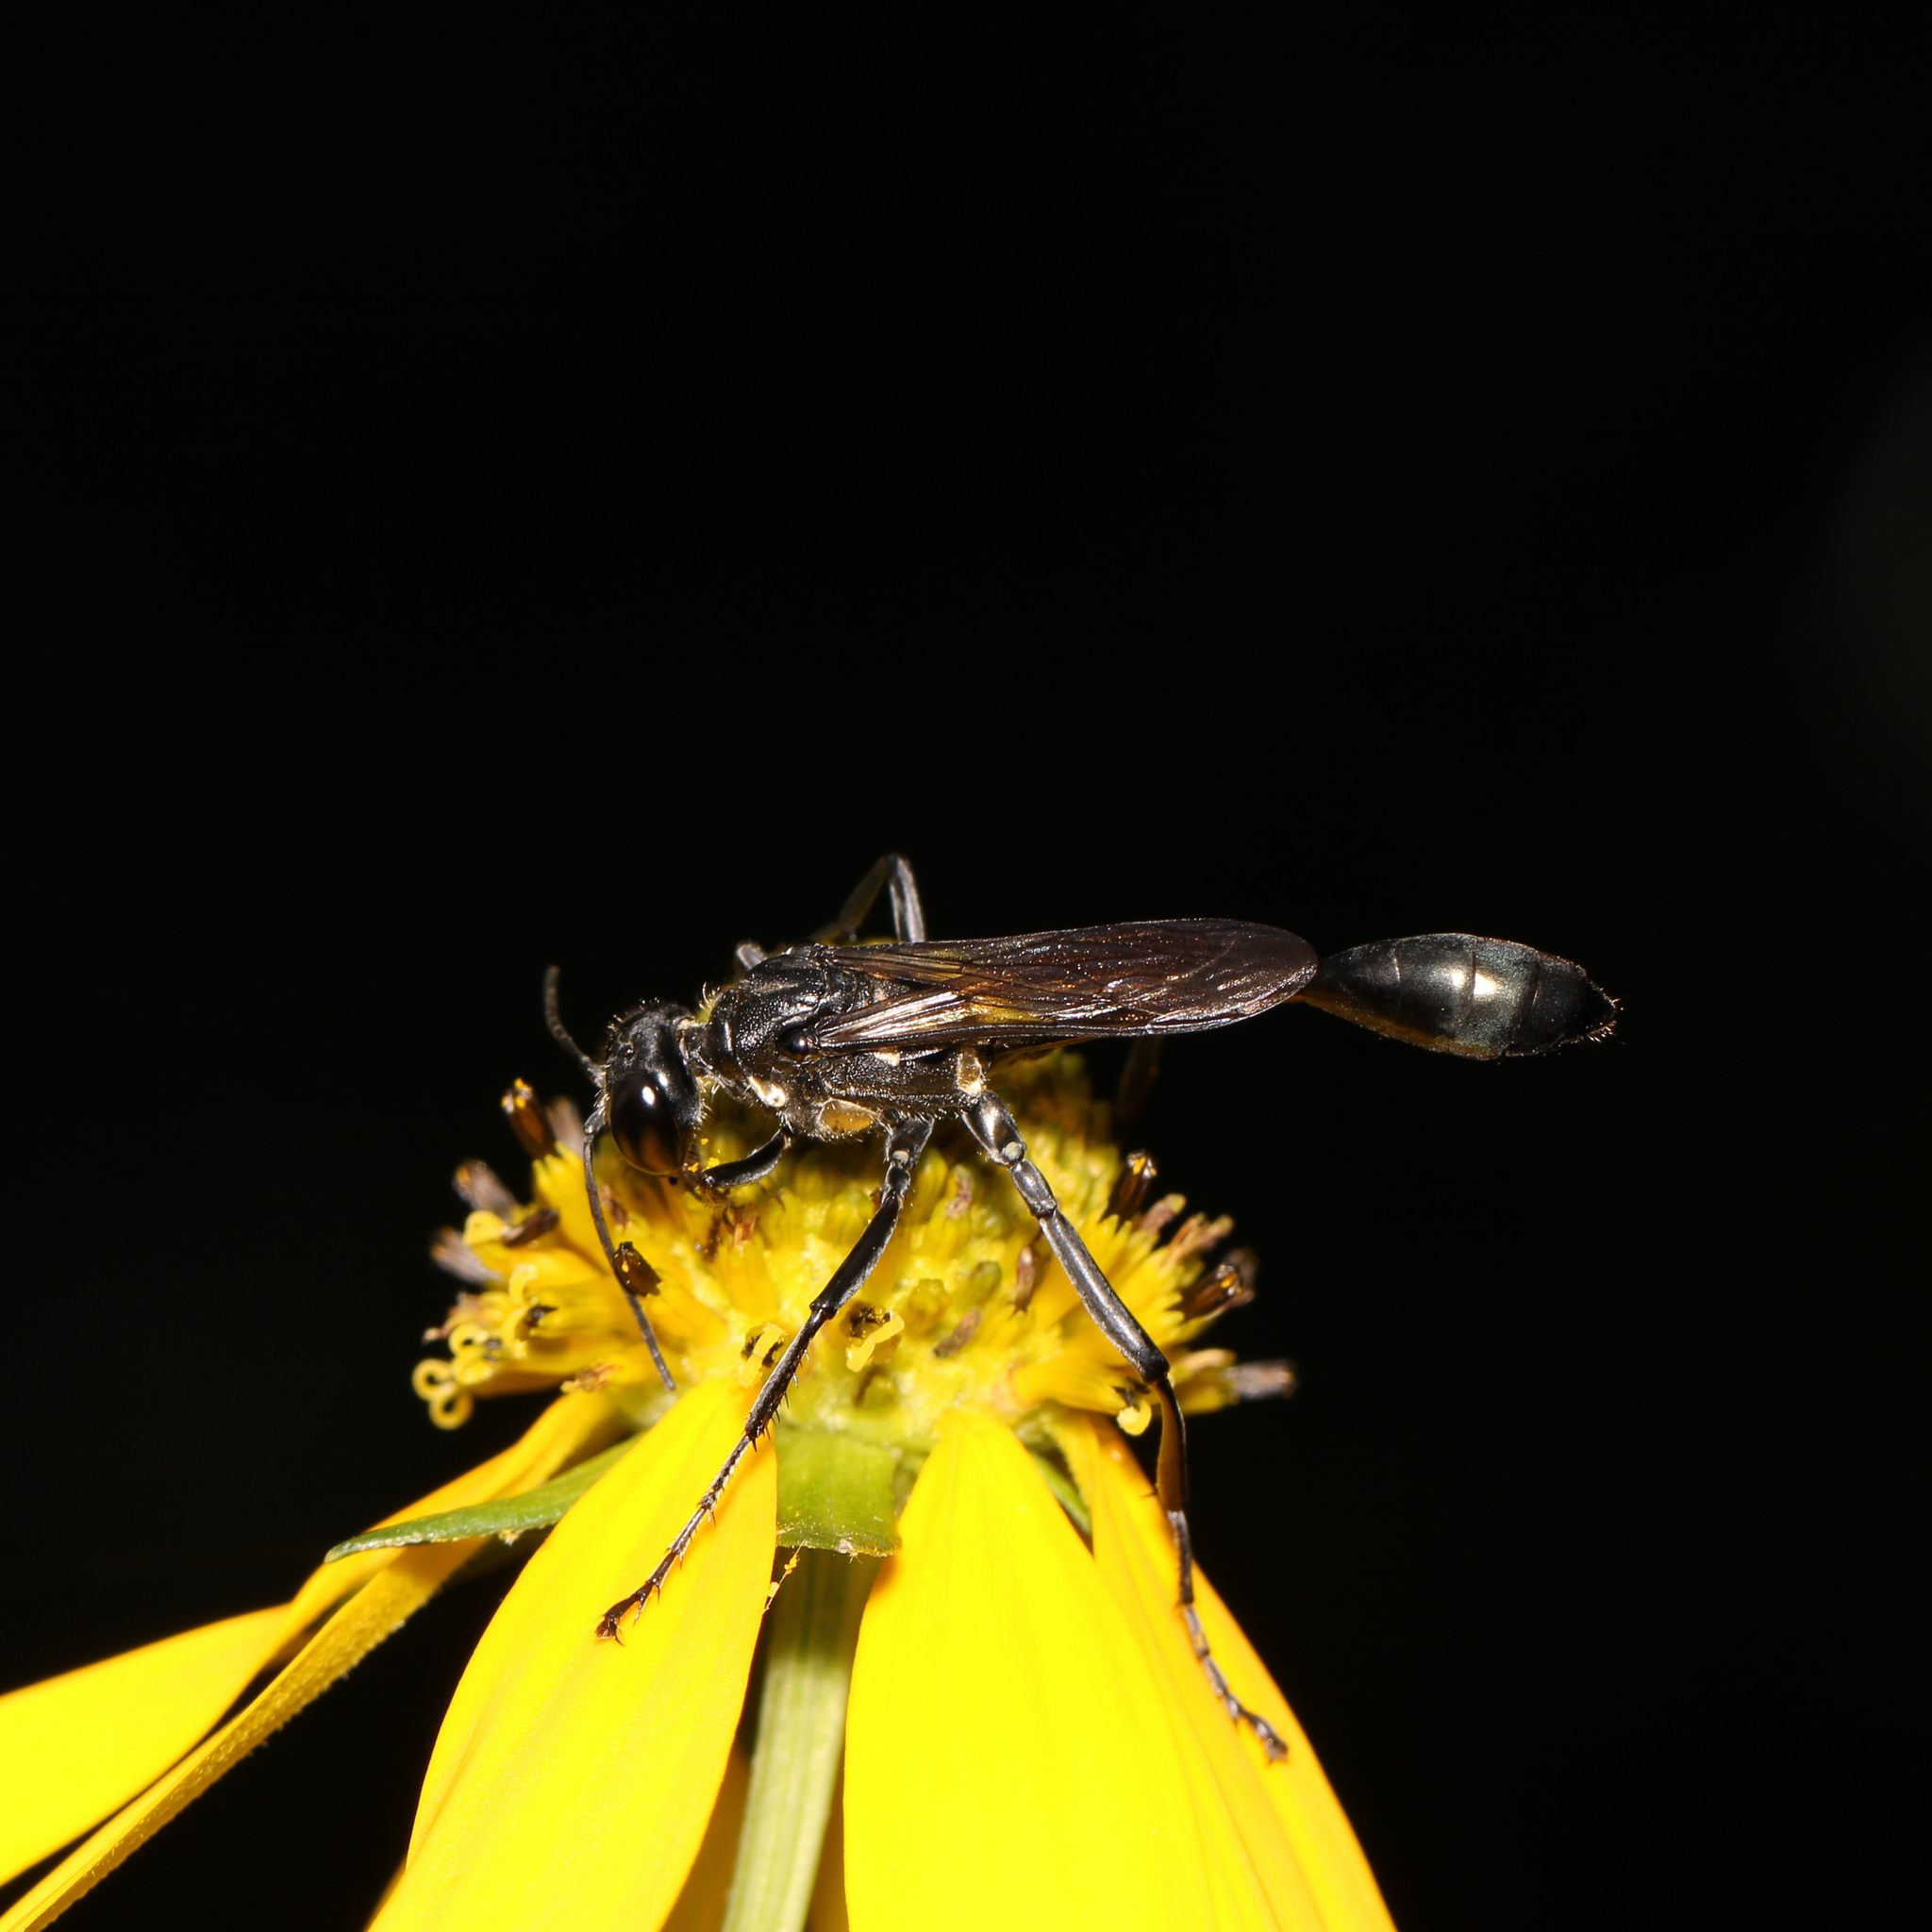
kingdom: Animalia
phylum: Arthropoda
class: Insecta
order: Hymenoptera
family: Sphecidae
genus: Eremnophila
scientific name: Eremnophila aureonotata
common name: Gold-marked thread-waisted wasp
